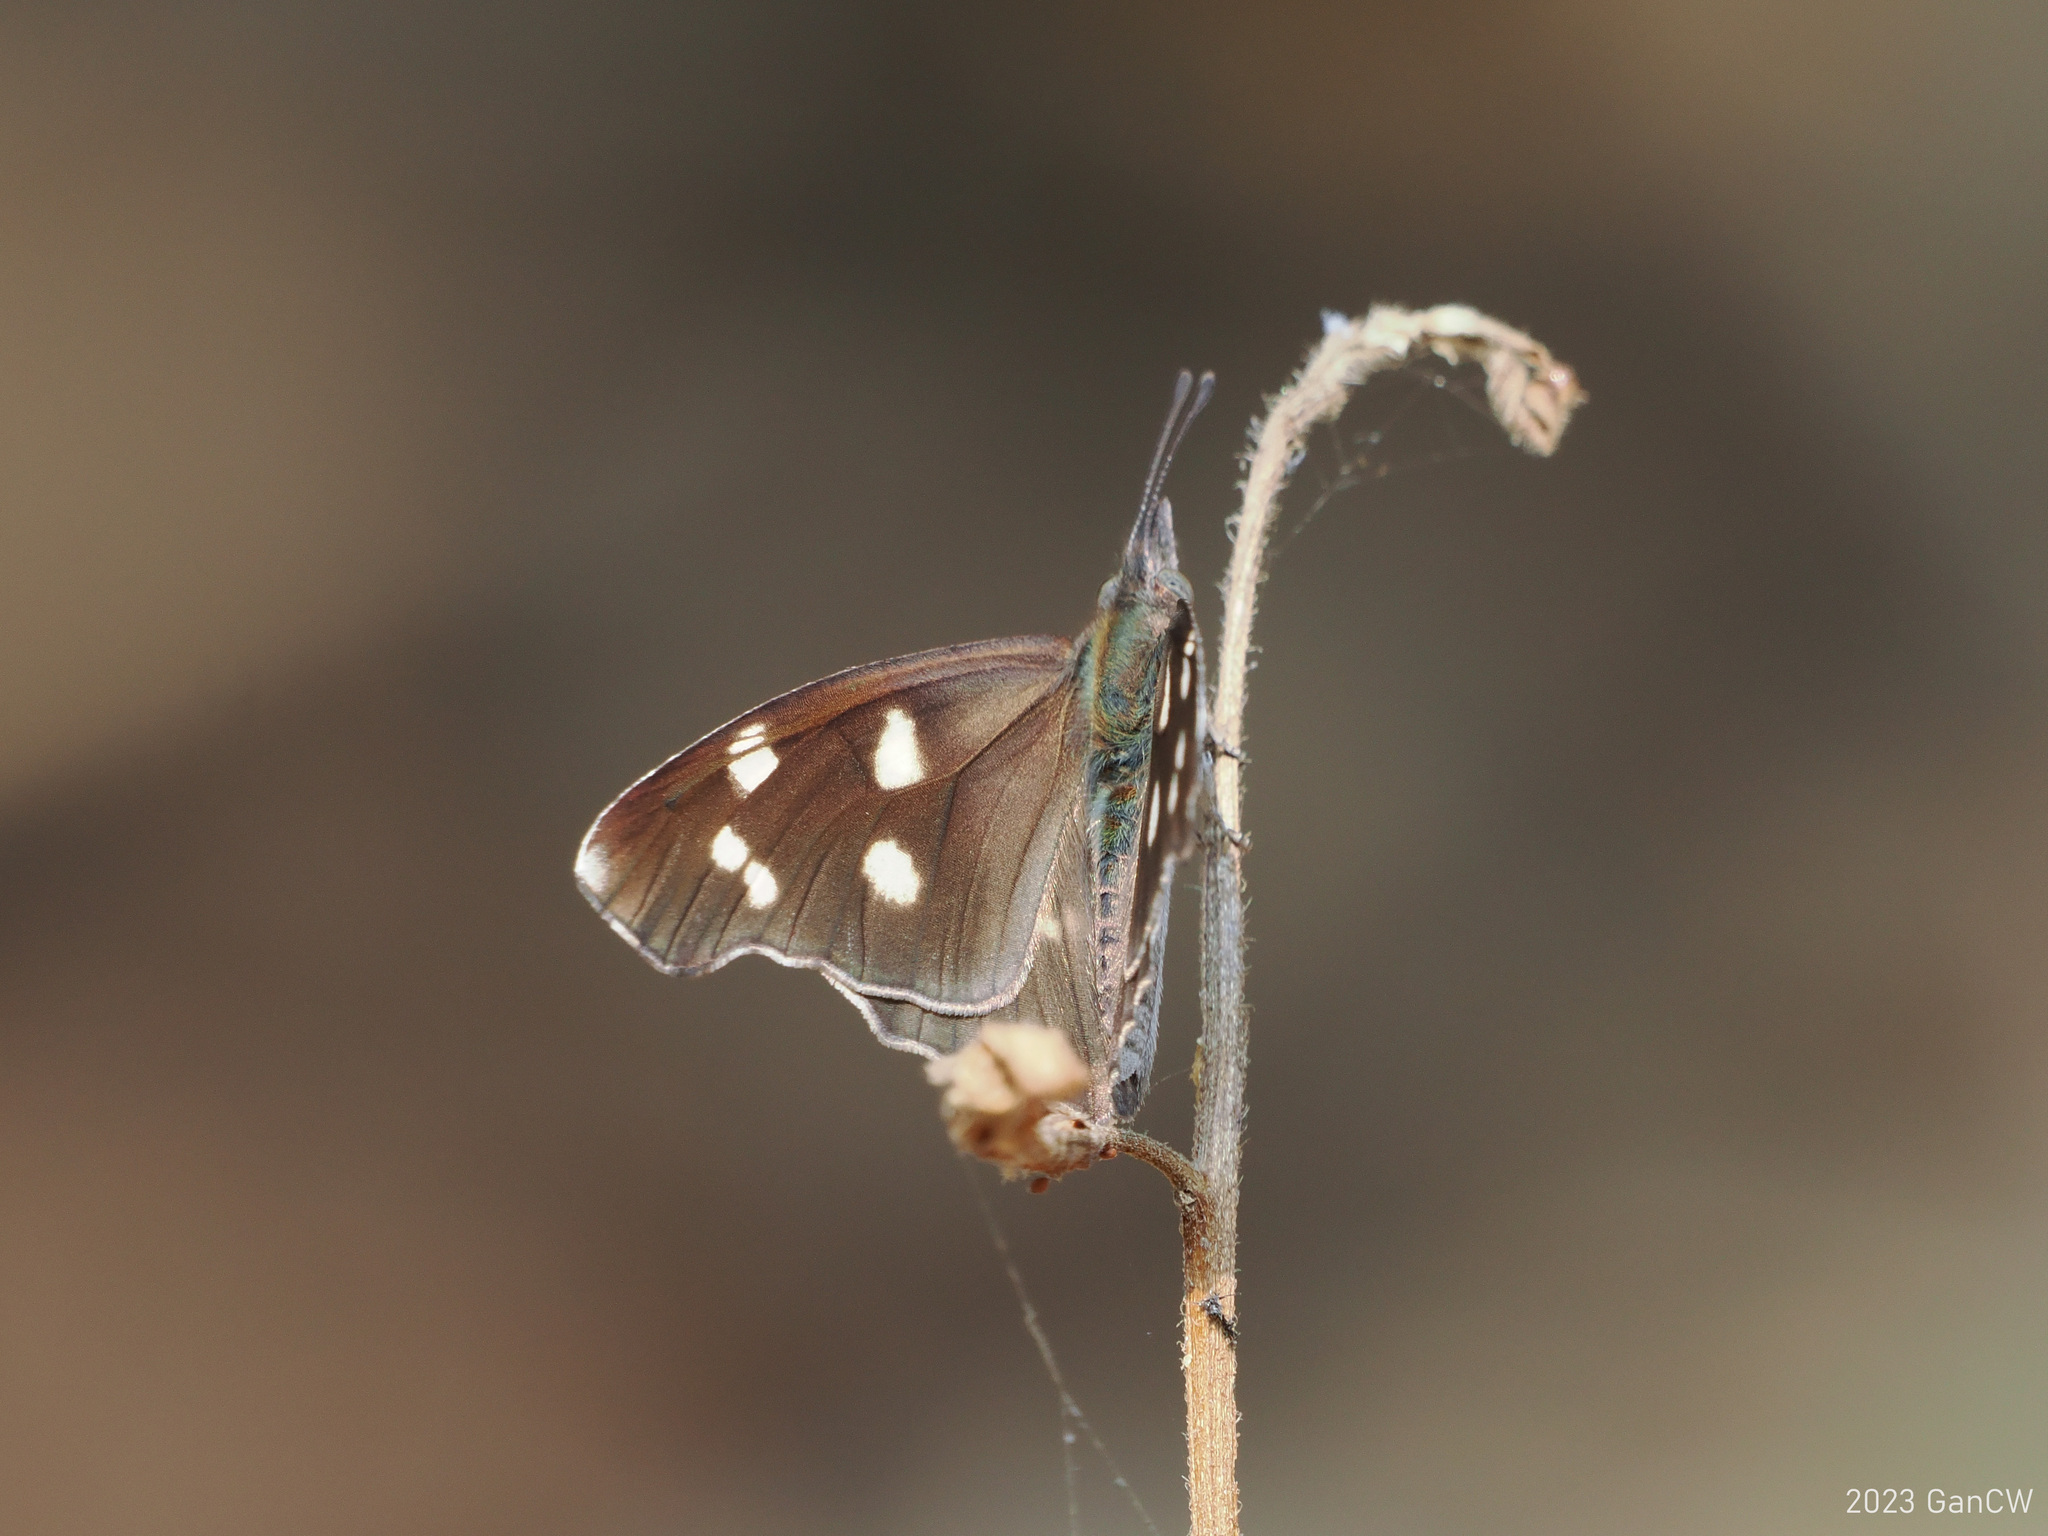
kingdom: Animalia
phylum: Arthropoda
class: Insecta
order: Lepidoptera
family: Nymphalidae
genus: Libythea
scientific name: Libythea narina
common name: Whitespotted beak
